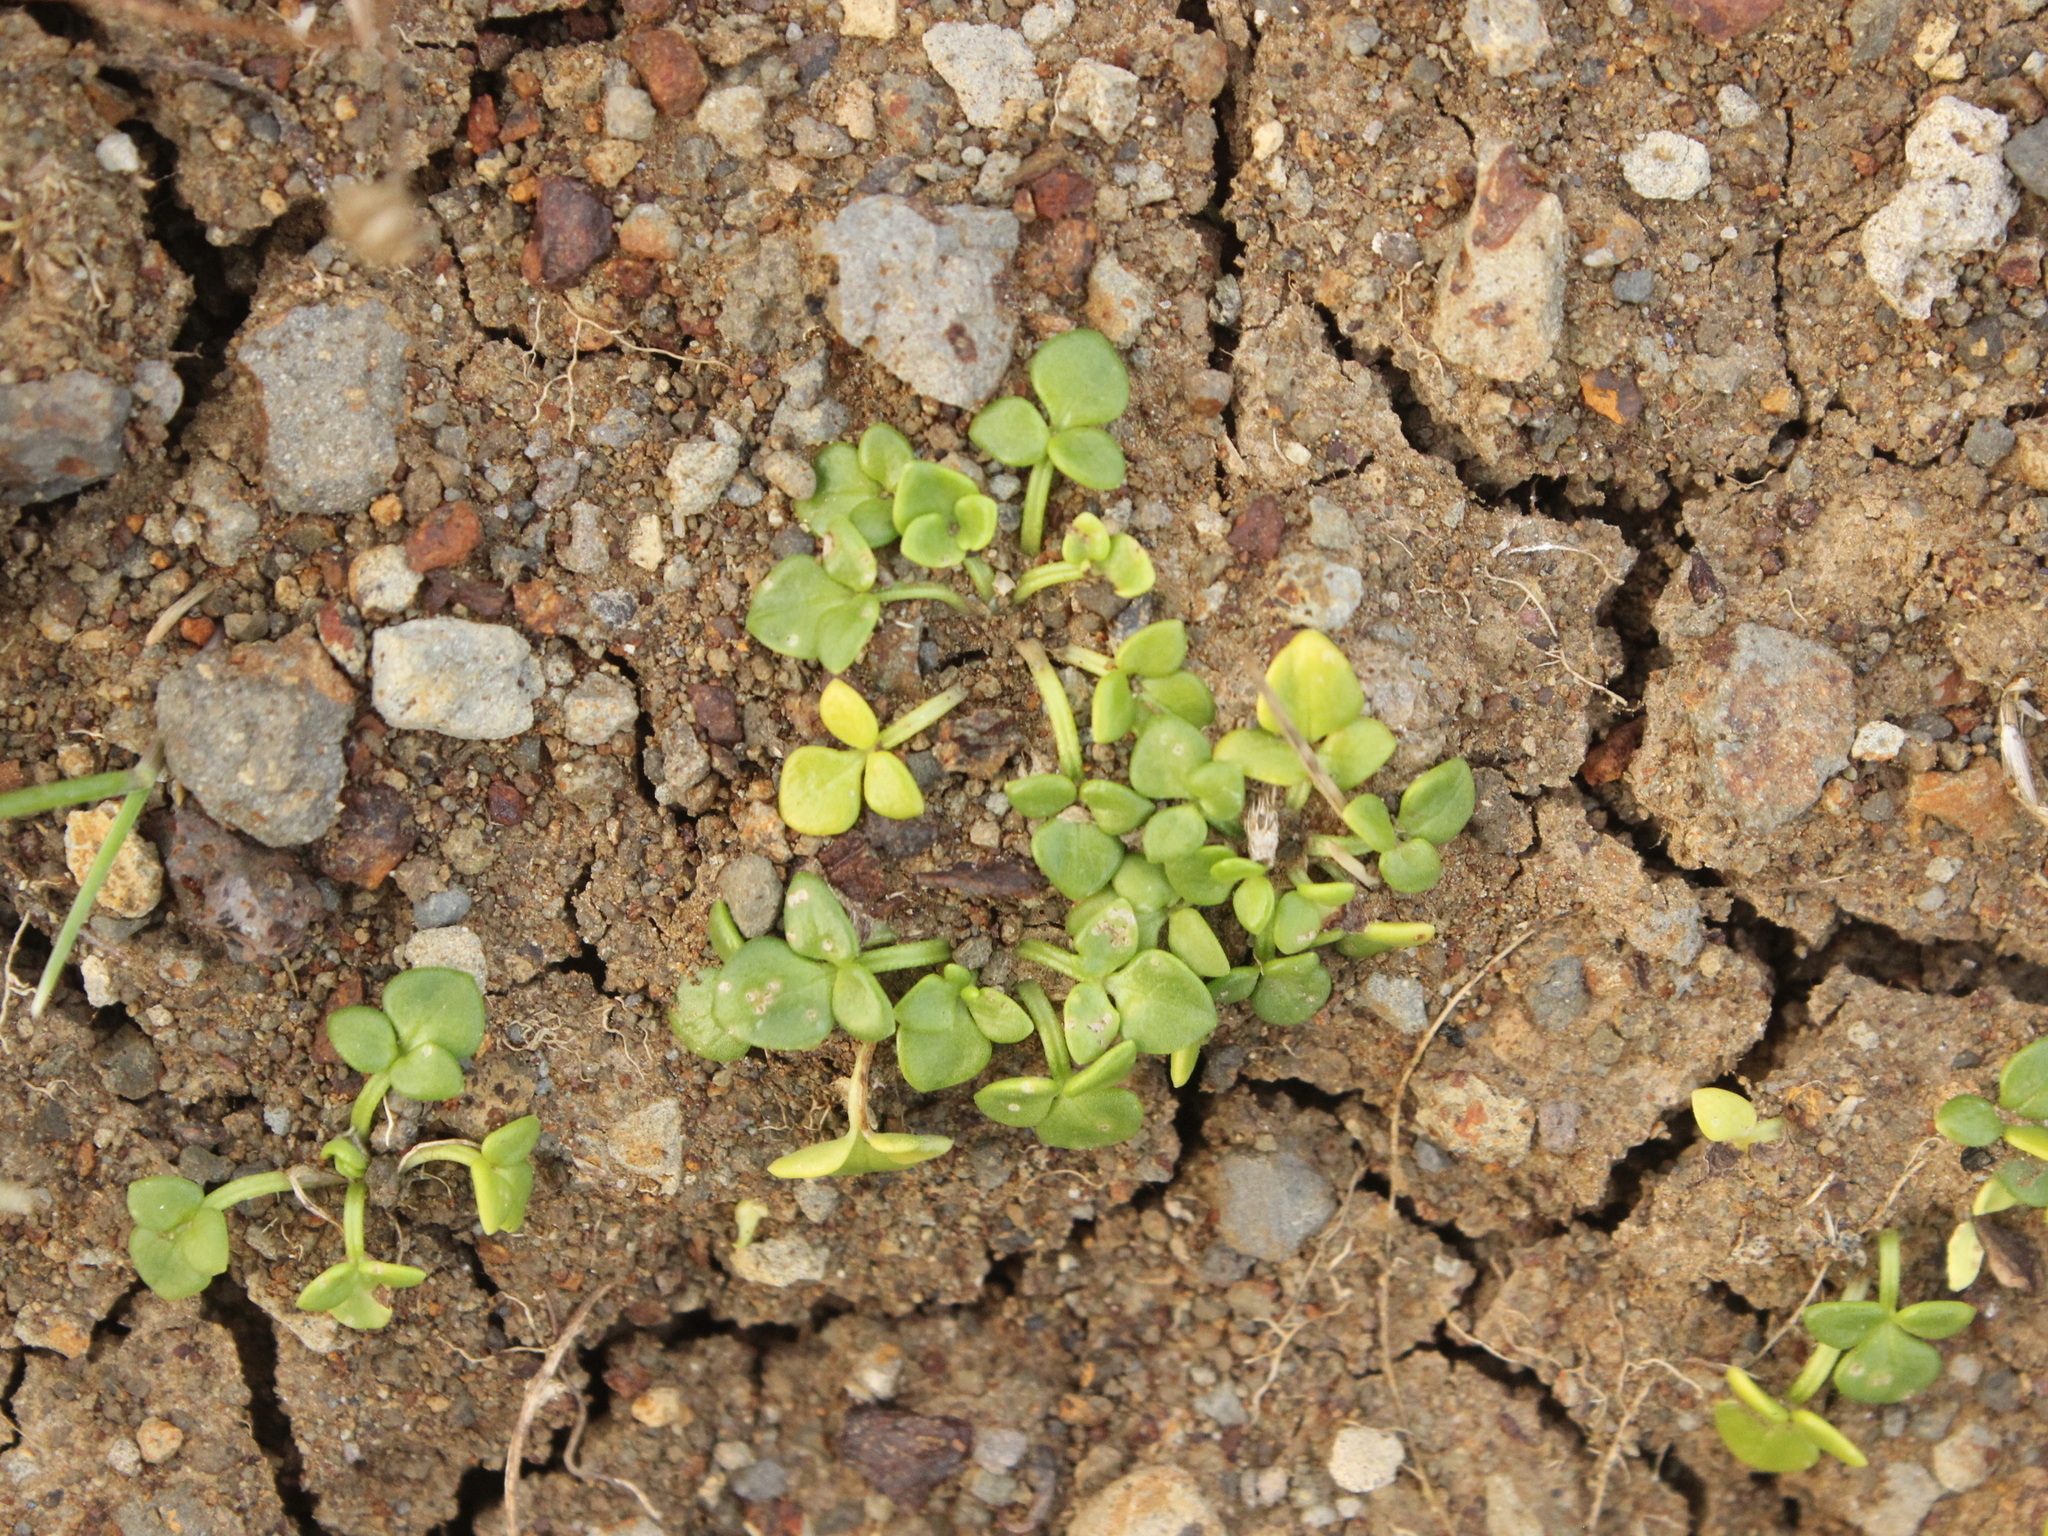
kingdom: Plantae
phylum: Tracheophyta
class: Magnoliopsida
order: Ranunculales
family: Ranunculaceae
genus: Ranunculus
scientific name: Ranunculus acaulis
